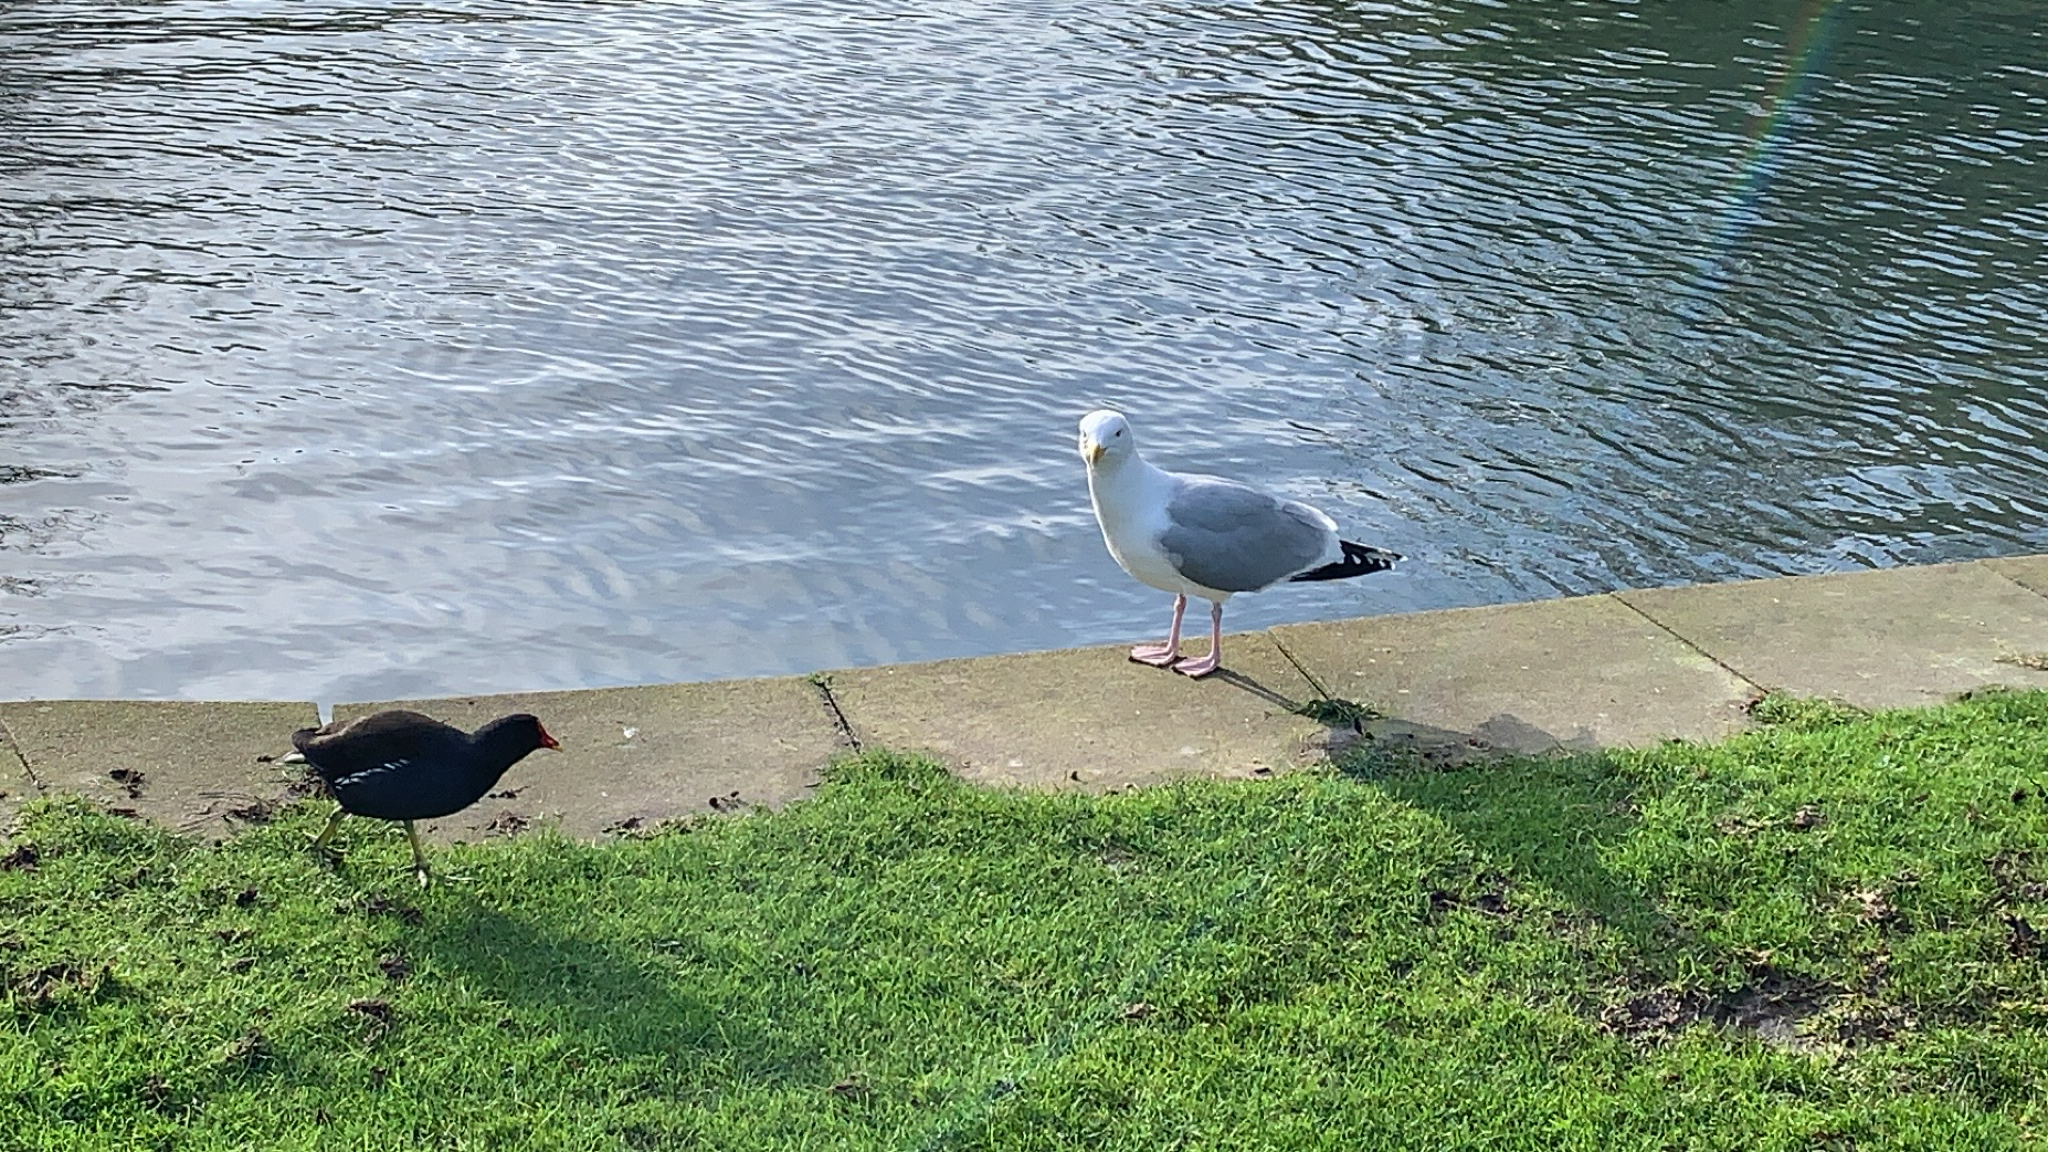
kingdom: Animalia
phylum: Chordata
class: Aves
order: Charadriiformes
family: Laridae
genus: Larus
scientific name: Larus argentatus
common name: Herring gull
